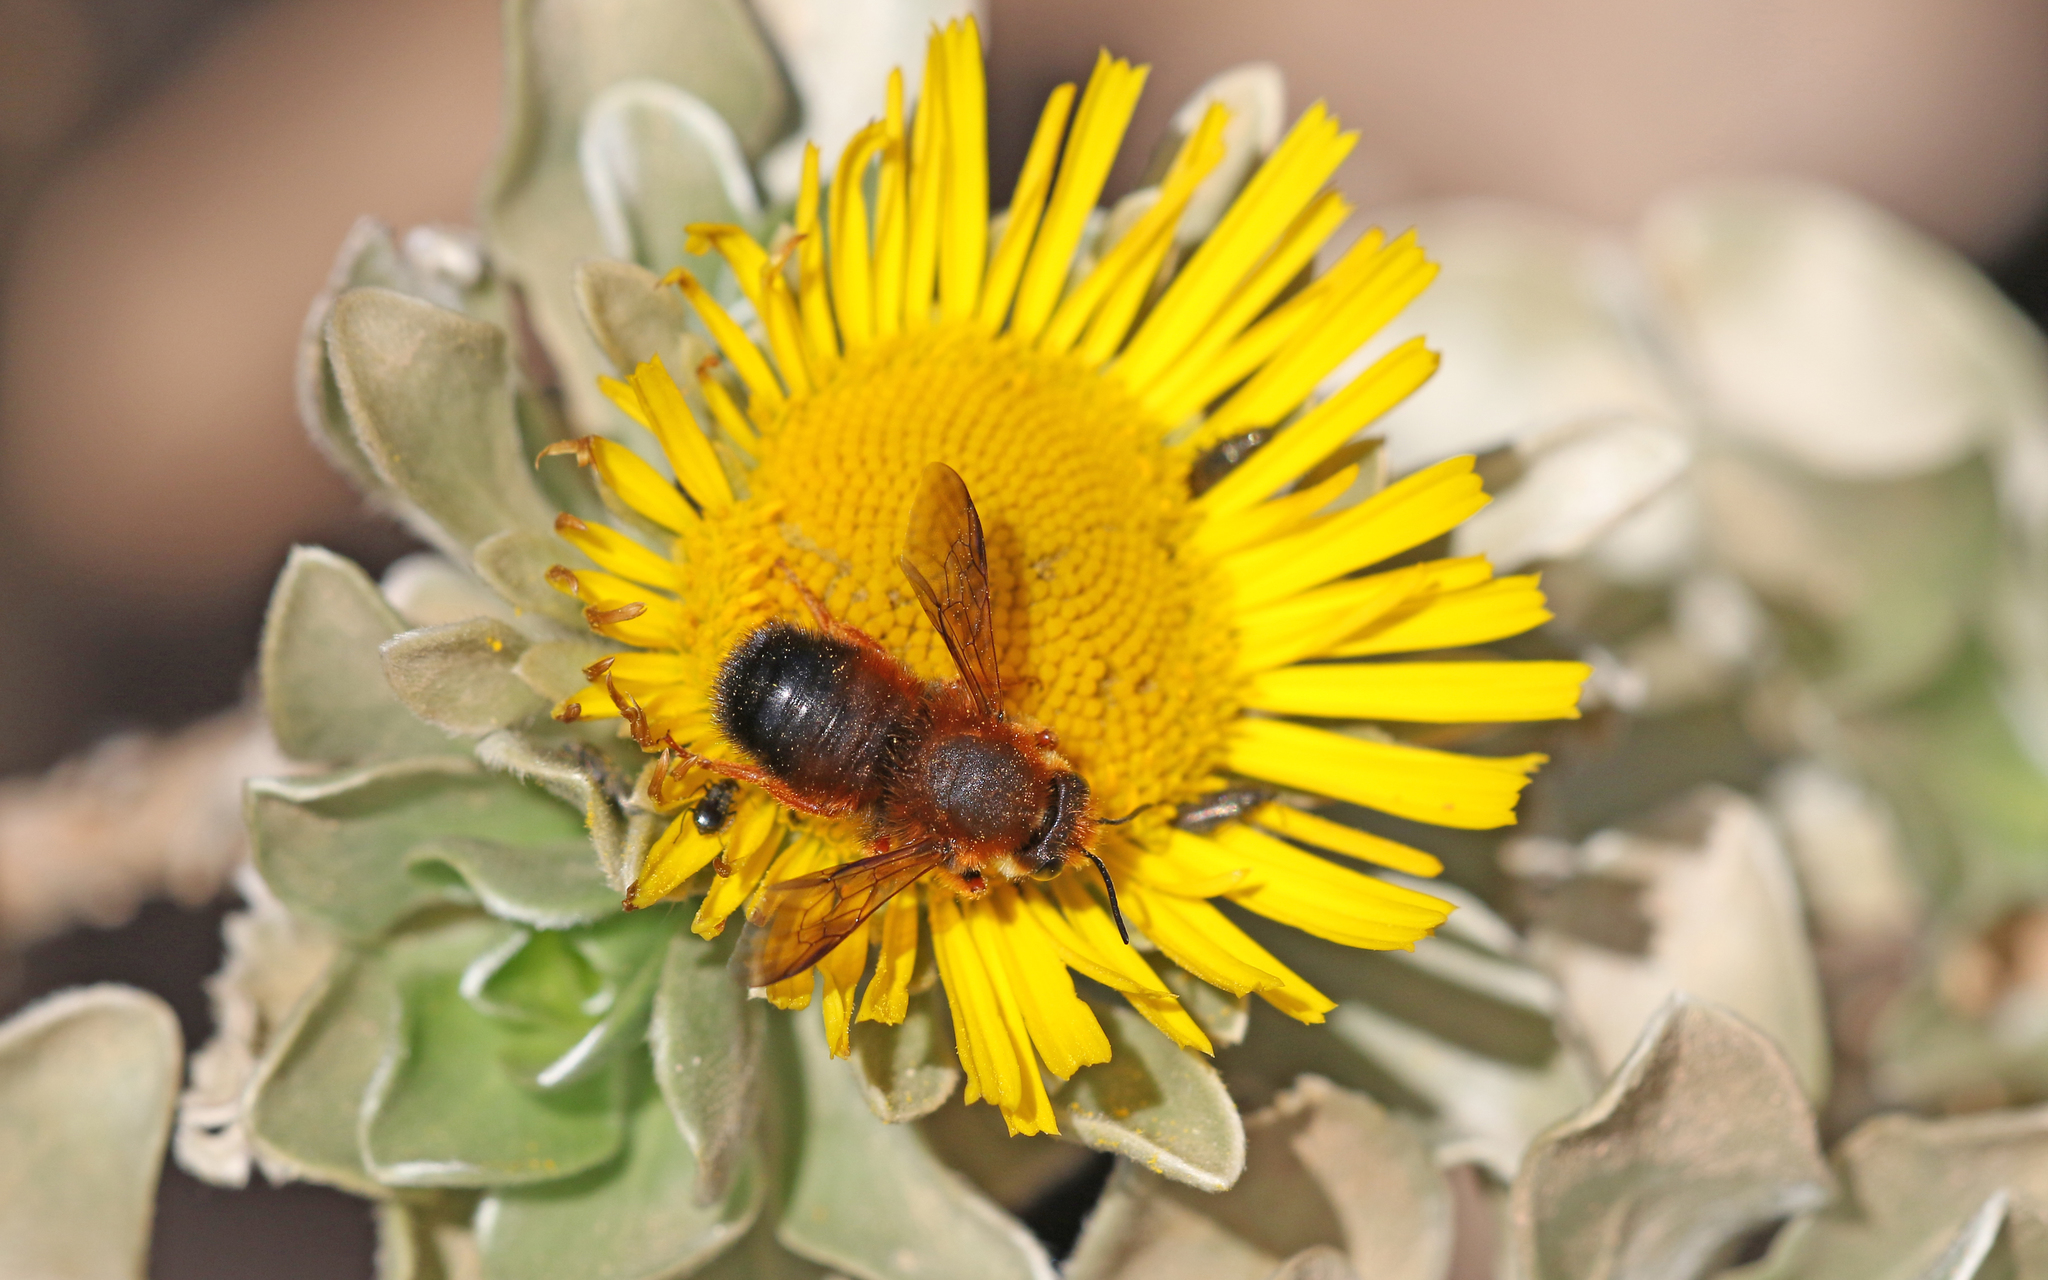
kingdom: Animalia
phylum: Arthropoda
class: Insecta
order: Hymenoptera
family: Megachilidae
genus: Megachile
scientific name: Megachile sicula
